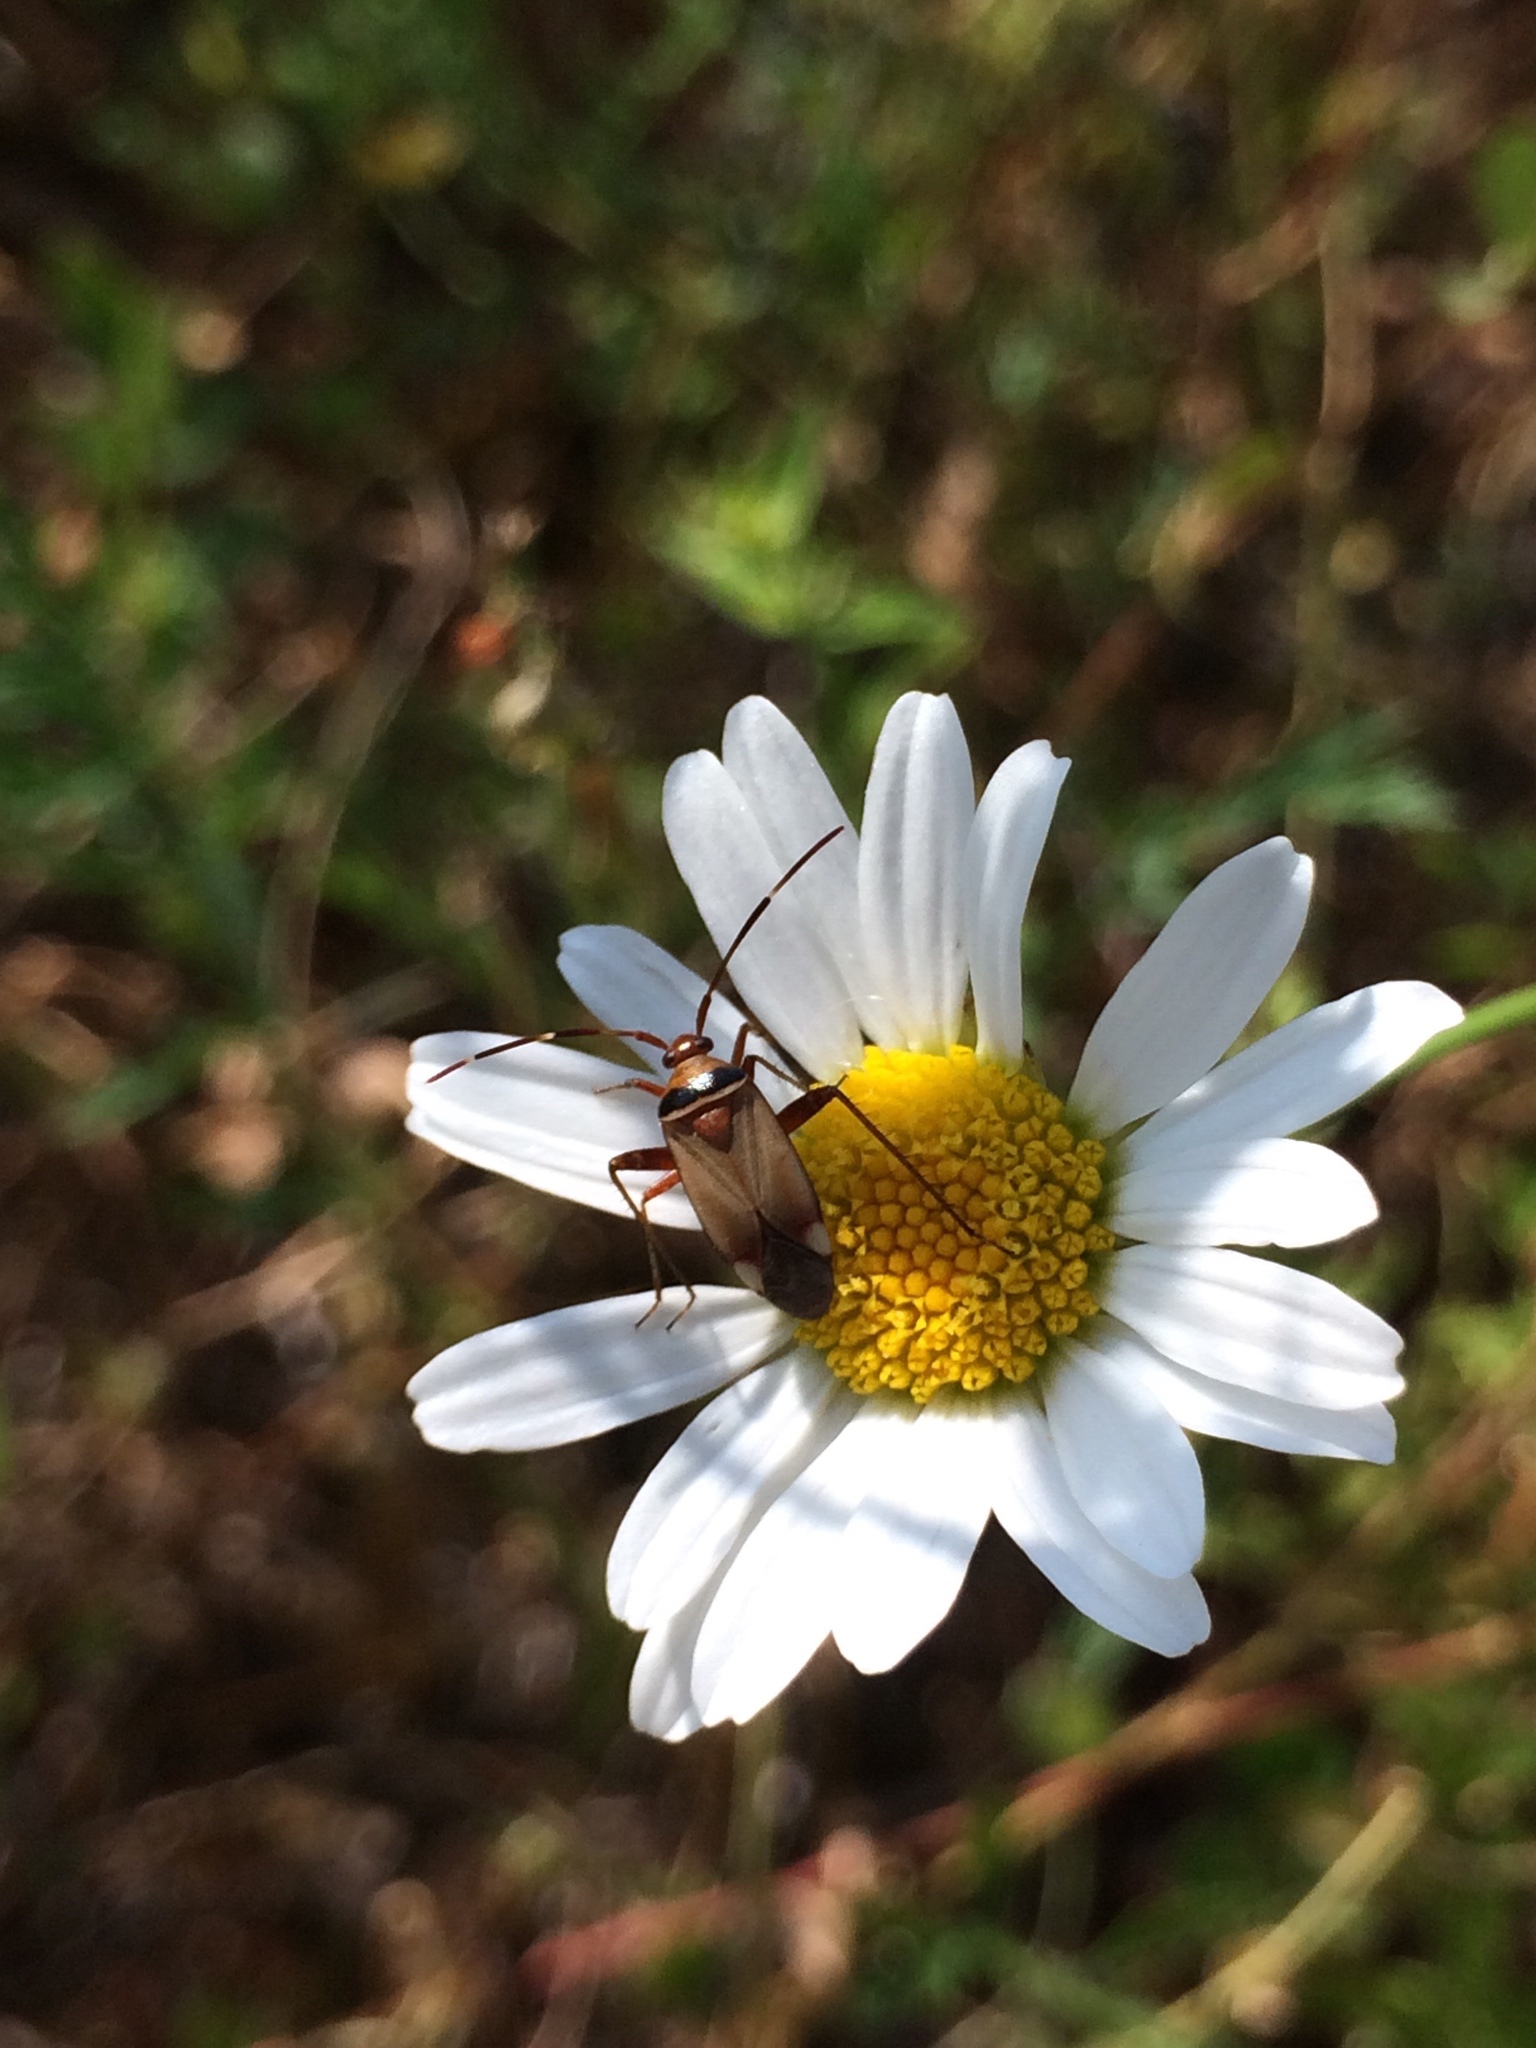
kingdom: Animalia
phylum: Arthropoda
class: Insecta
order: Hemiptera
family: Miridae
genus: Adelphocoris
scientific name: Adelphocoris vandalicus
